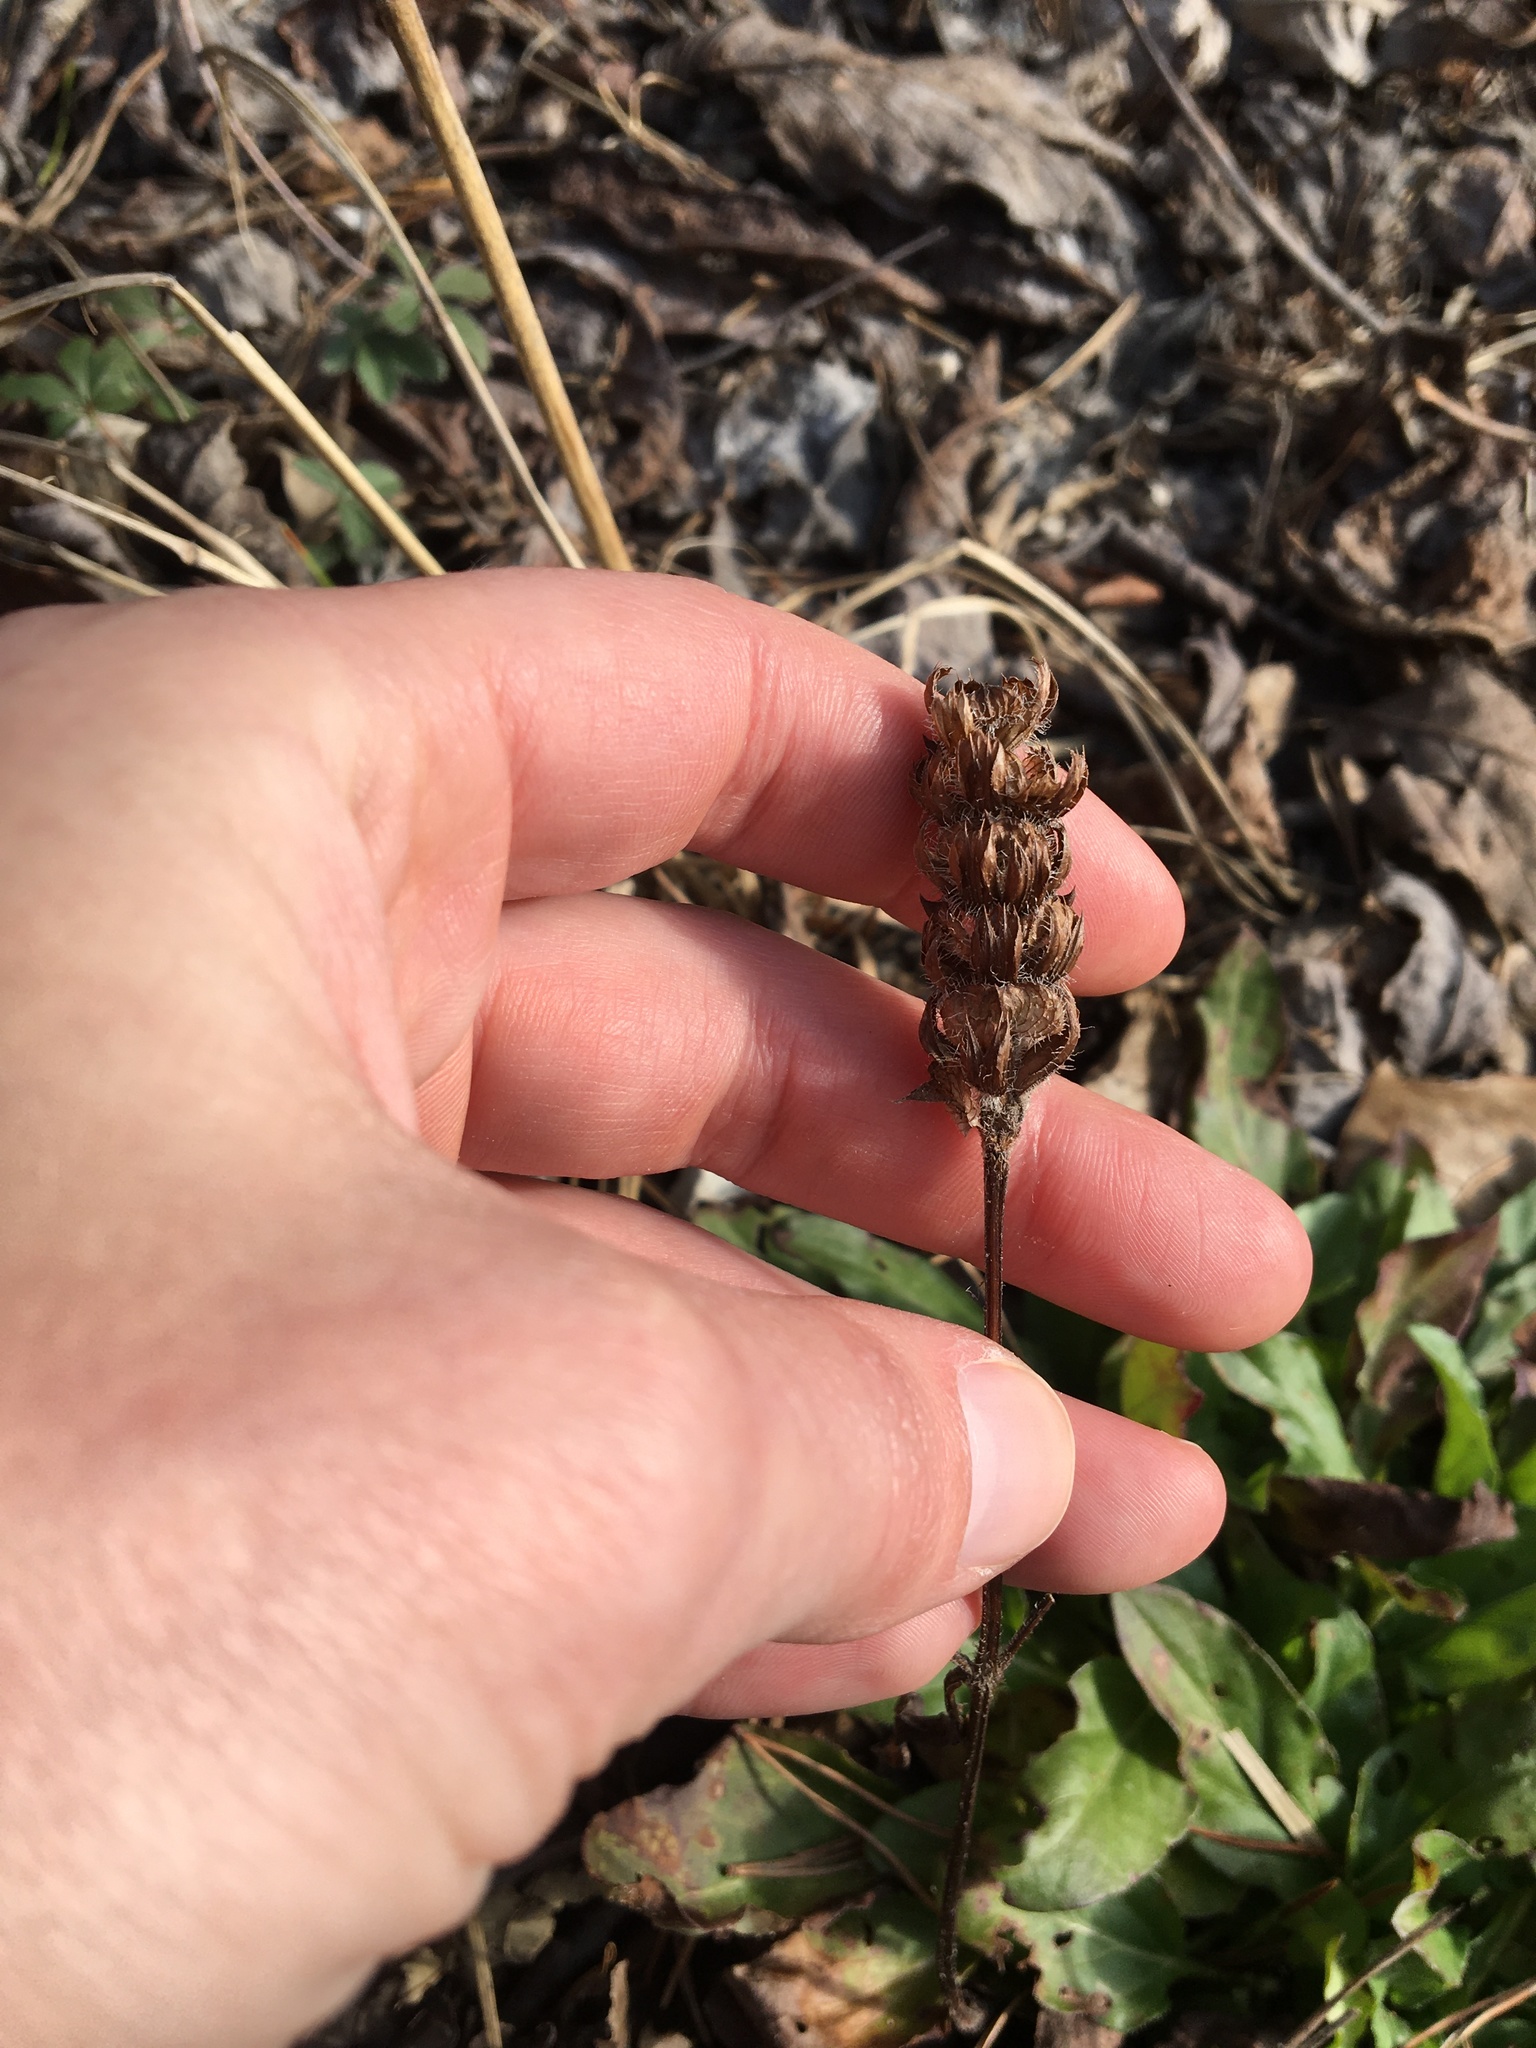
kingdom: Plantae
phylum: Tracheophyta
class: Magnoliopsida
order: Lamiales
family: Lamiaceae
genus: Prunella
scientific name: Prunella vulgaris
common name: Heal-all
